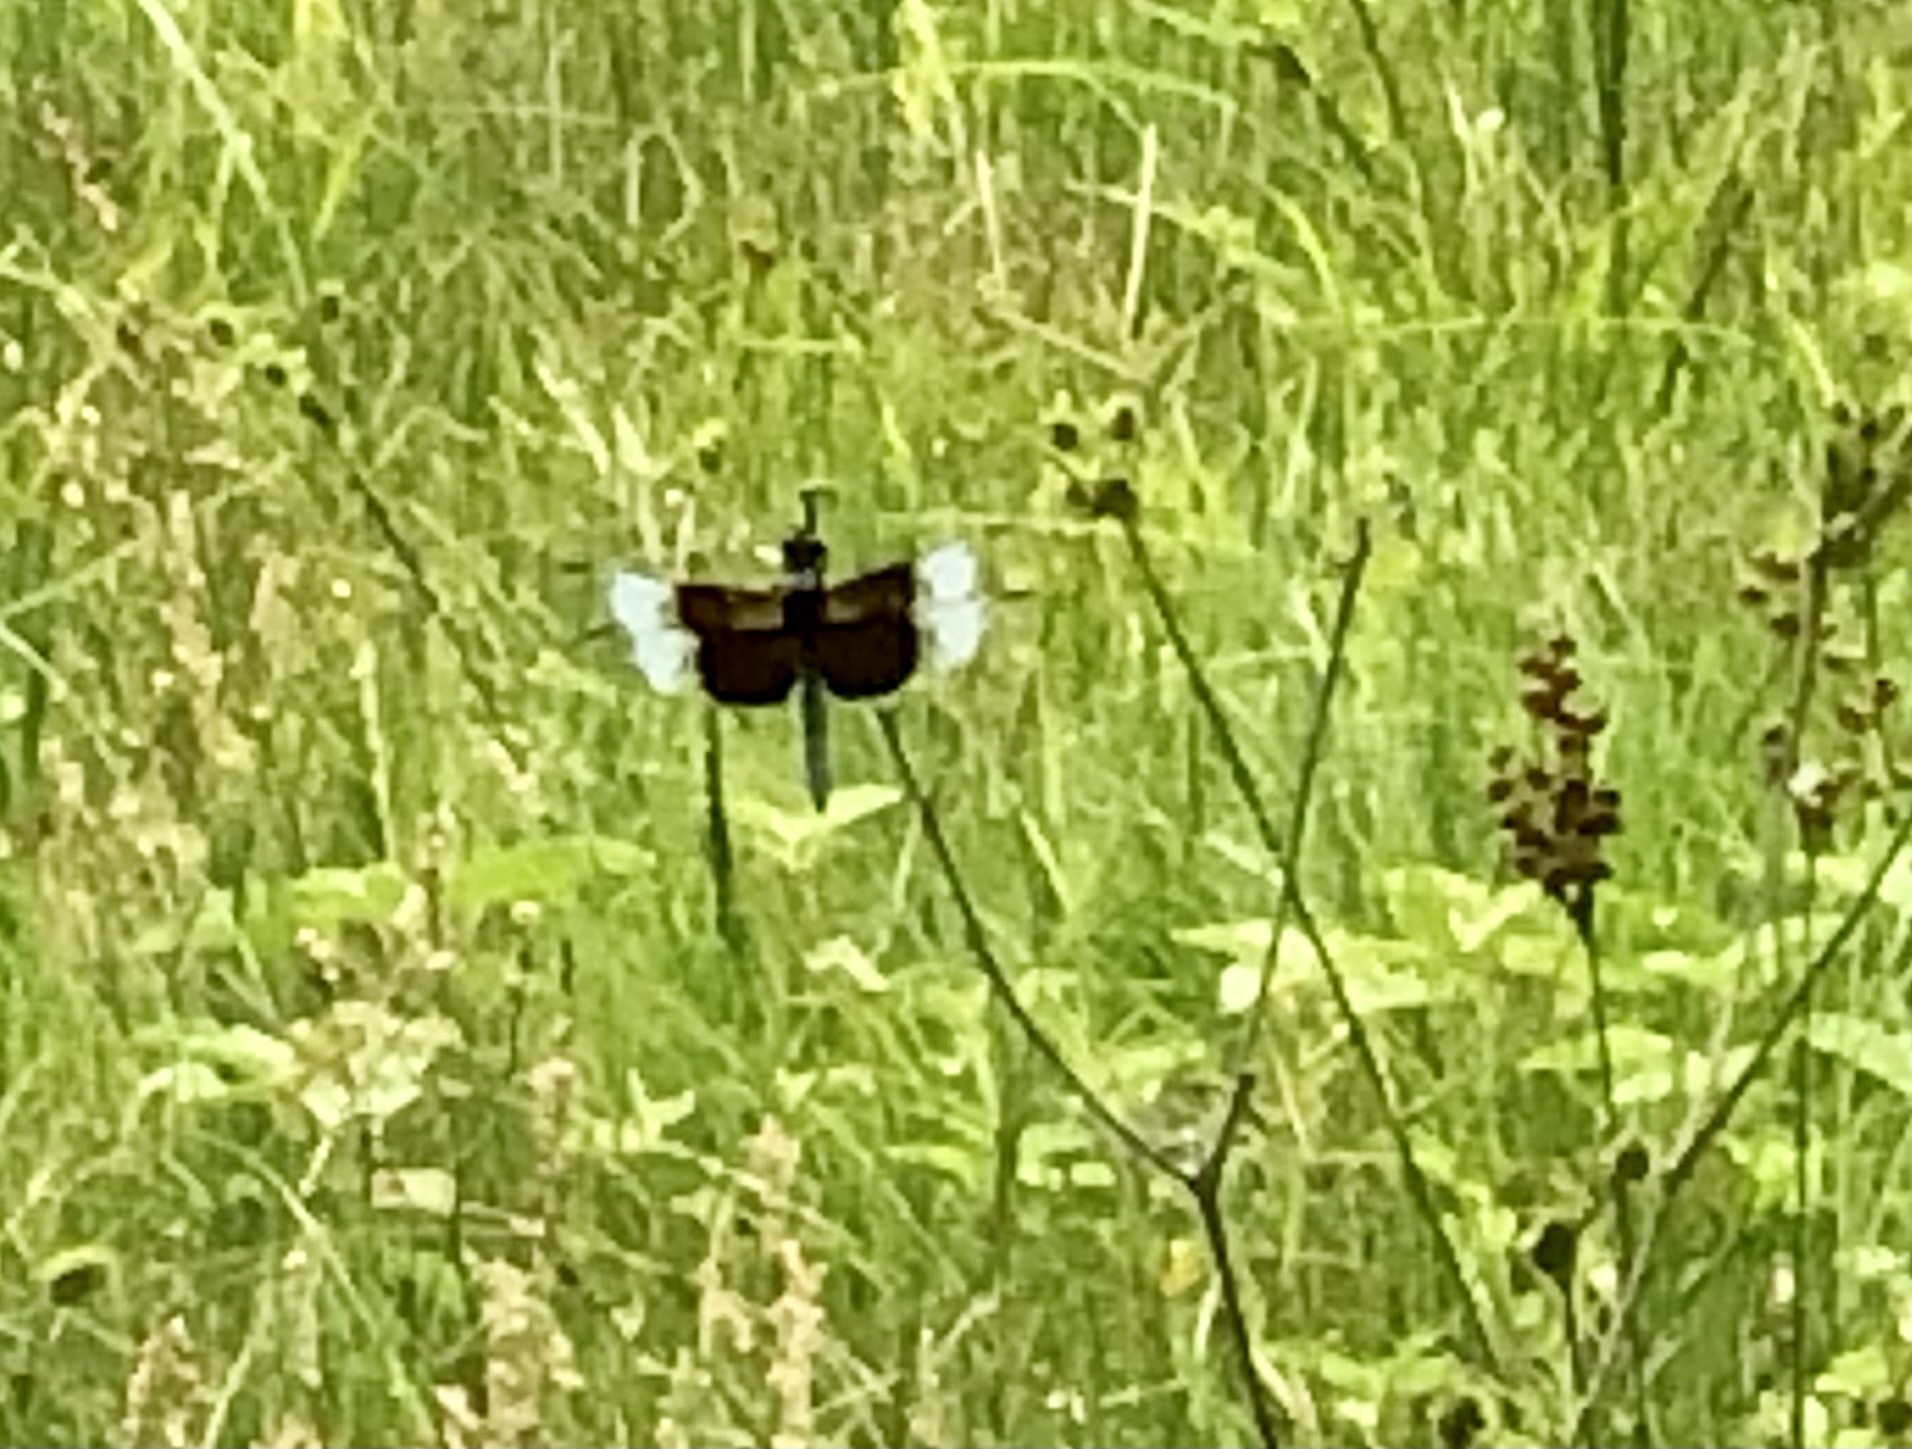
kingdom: Animalia
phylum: Arthropoda
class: Insecta
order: Odonata
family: Libellulidae
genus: Libellula
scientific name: Libellula luctuosa
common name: Widow skimmer
